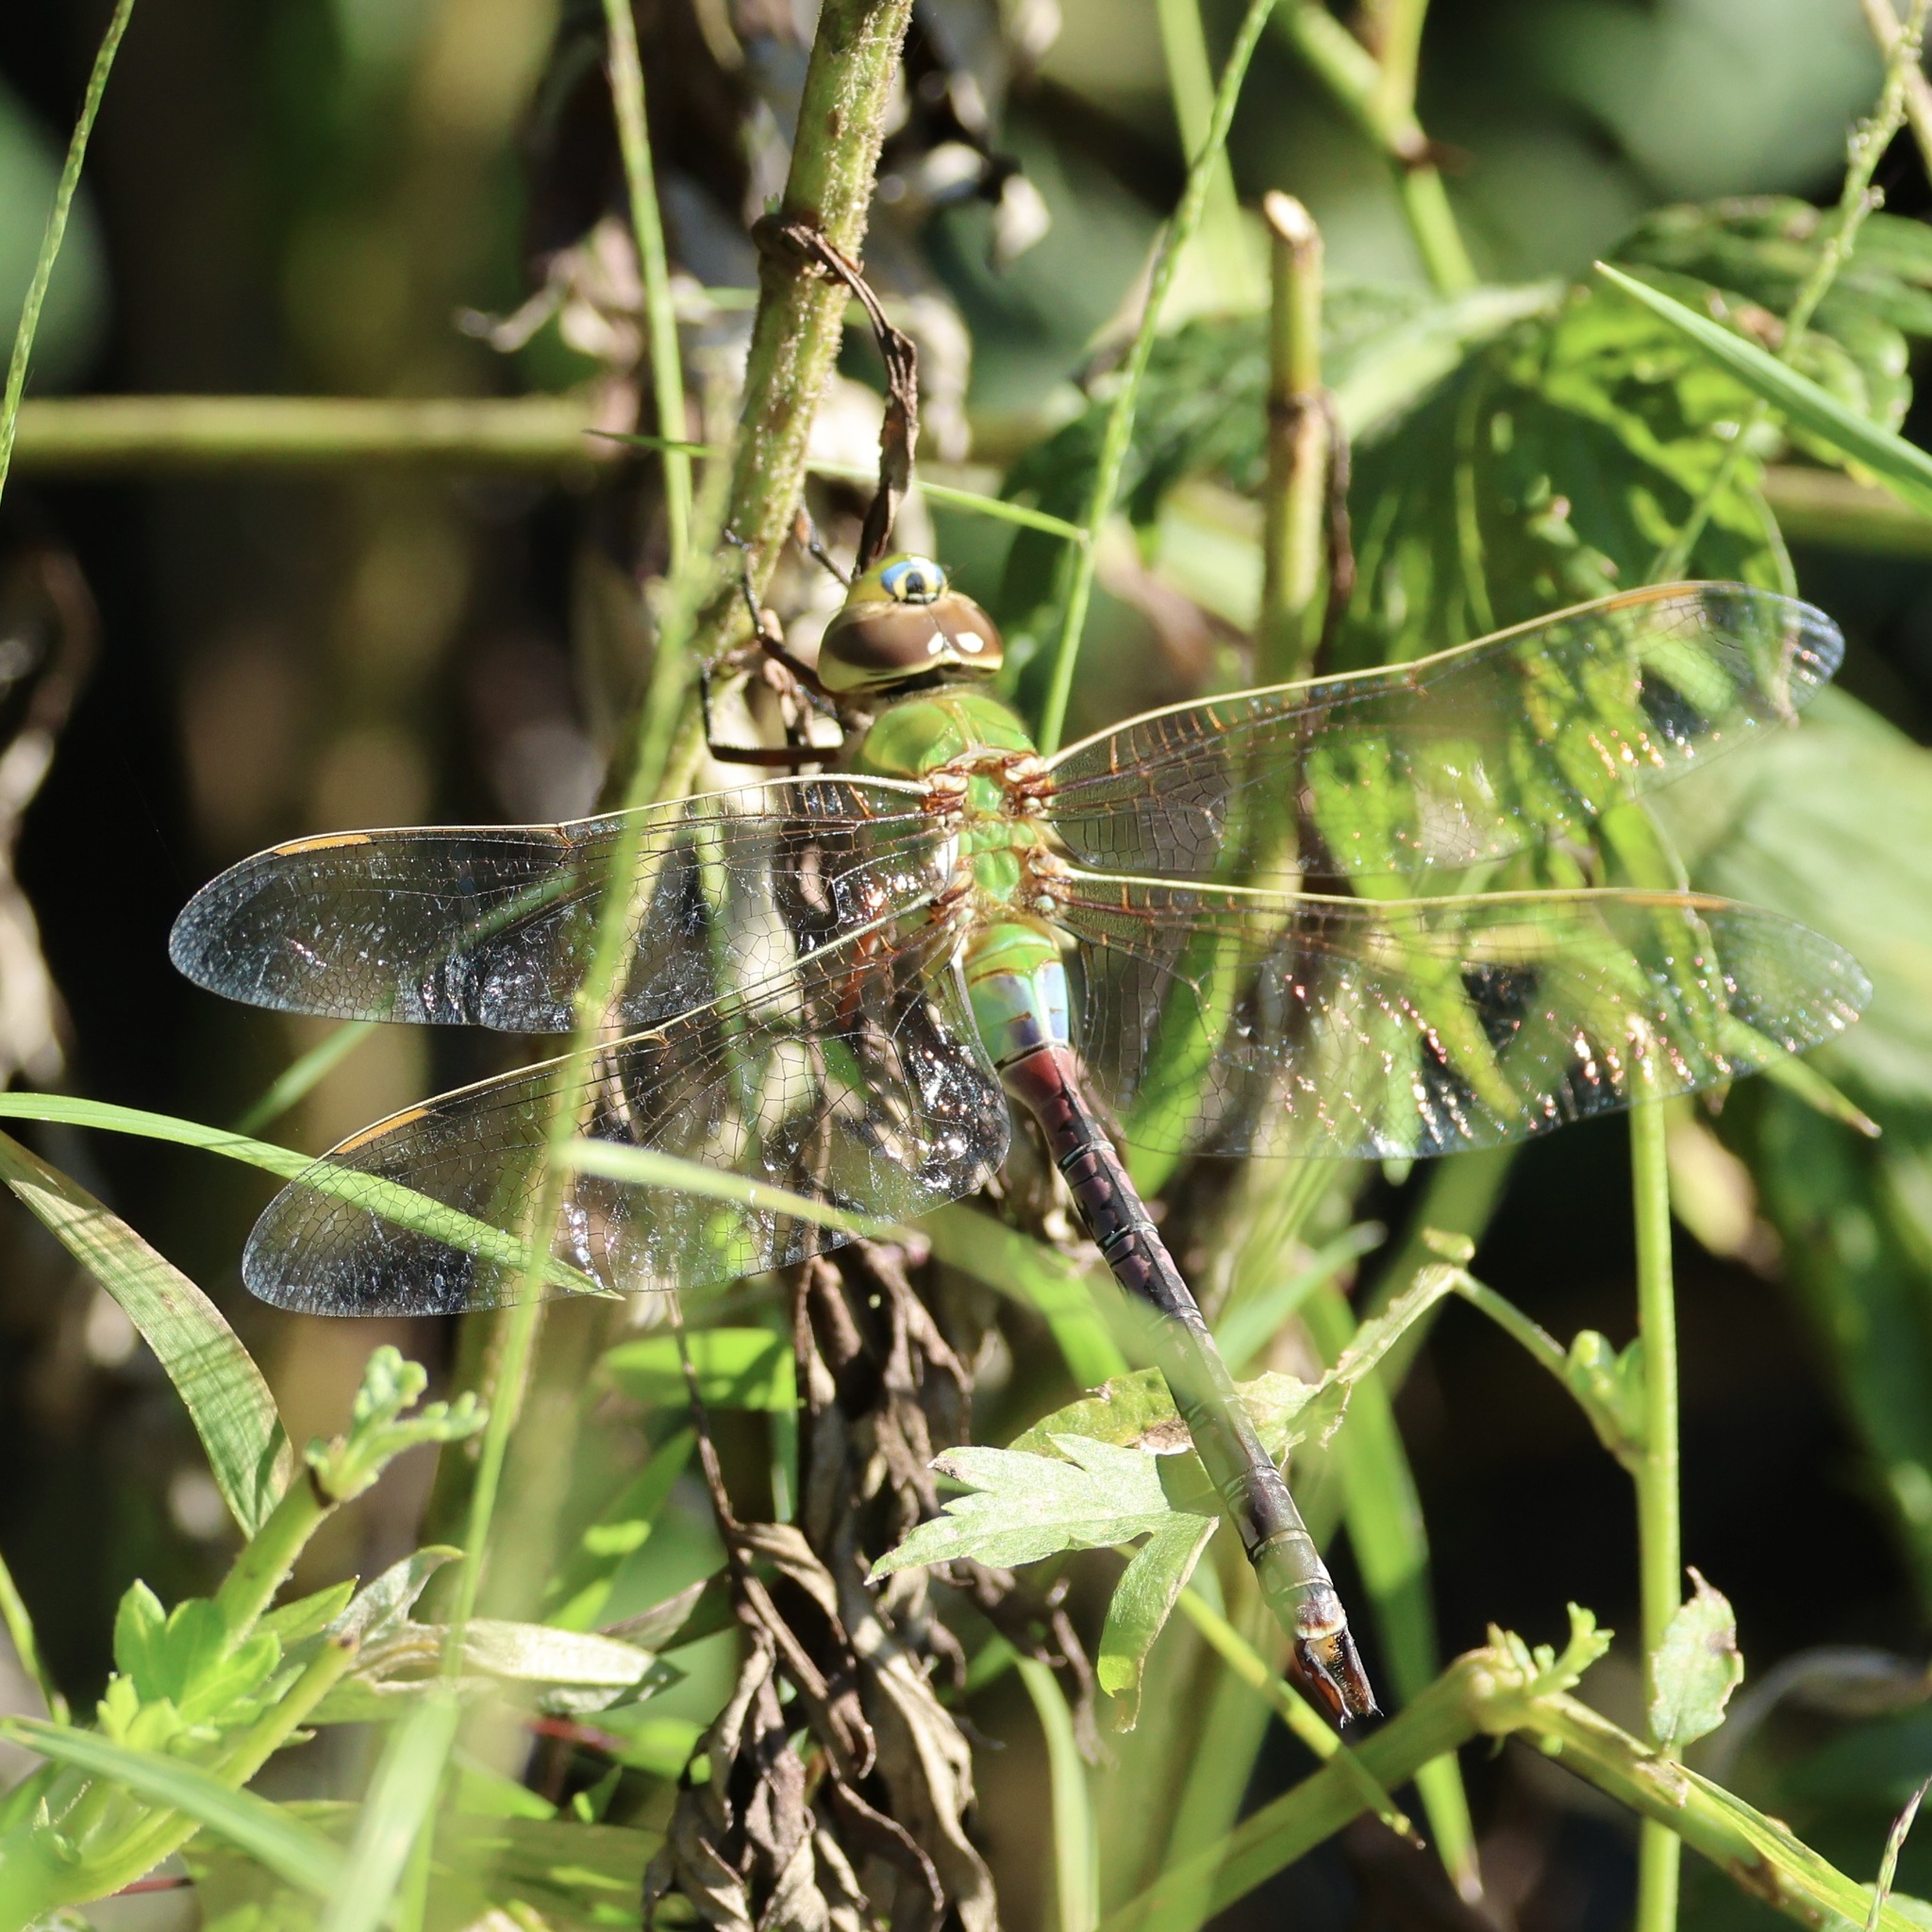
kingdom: Animalia
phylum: Arthropoda
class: Insecta
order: Odonata
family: Aeshnidae
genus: Anax
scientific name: Anax junius
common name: Common green darner
